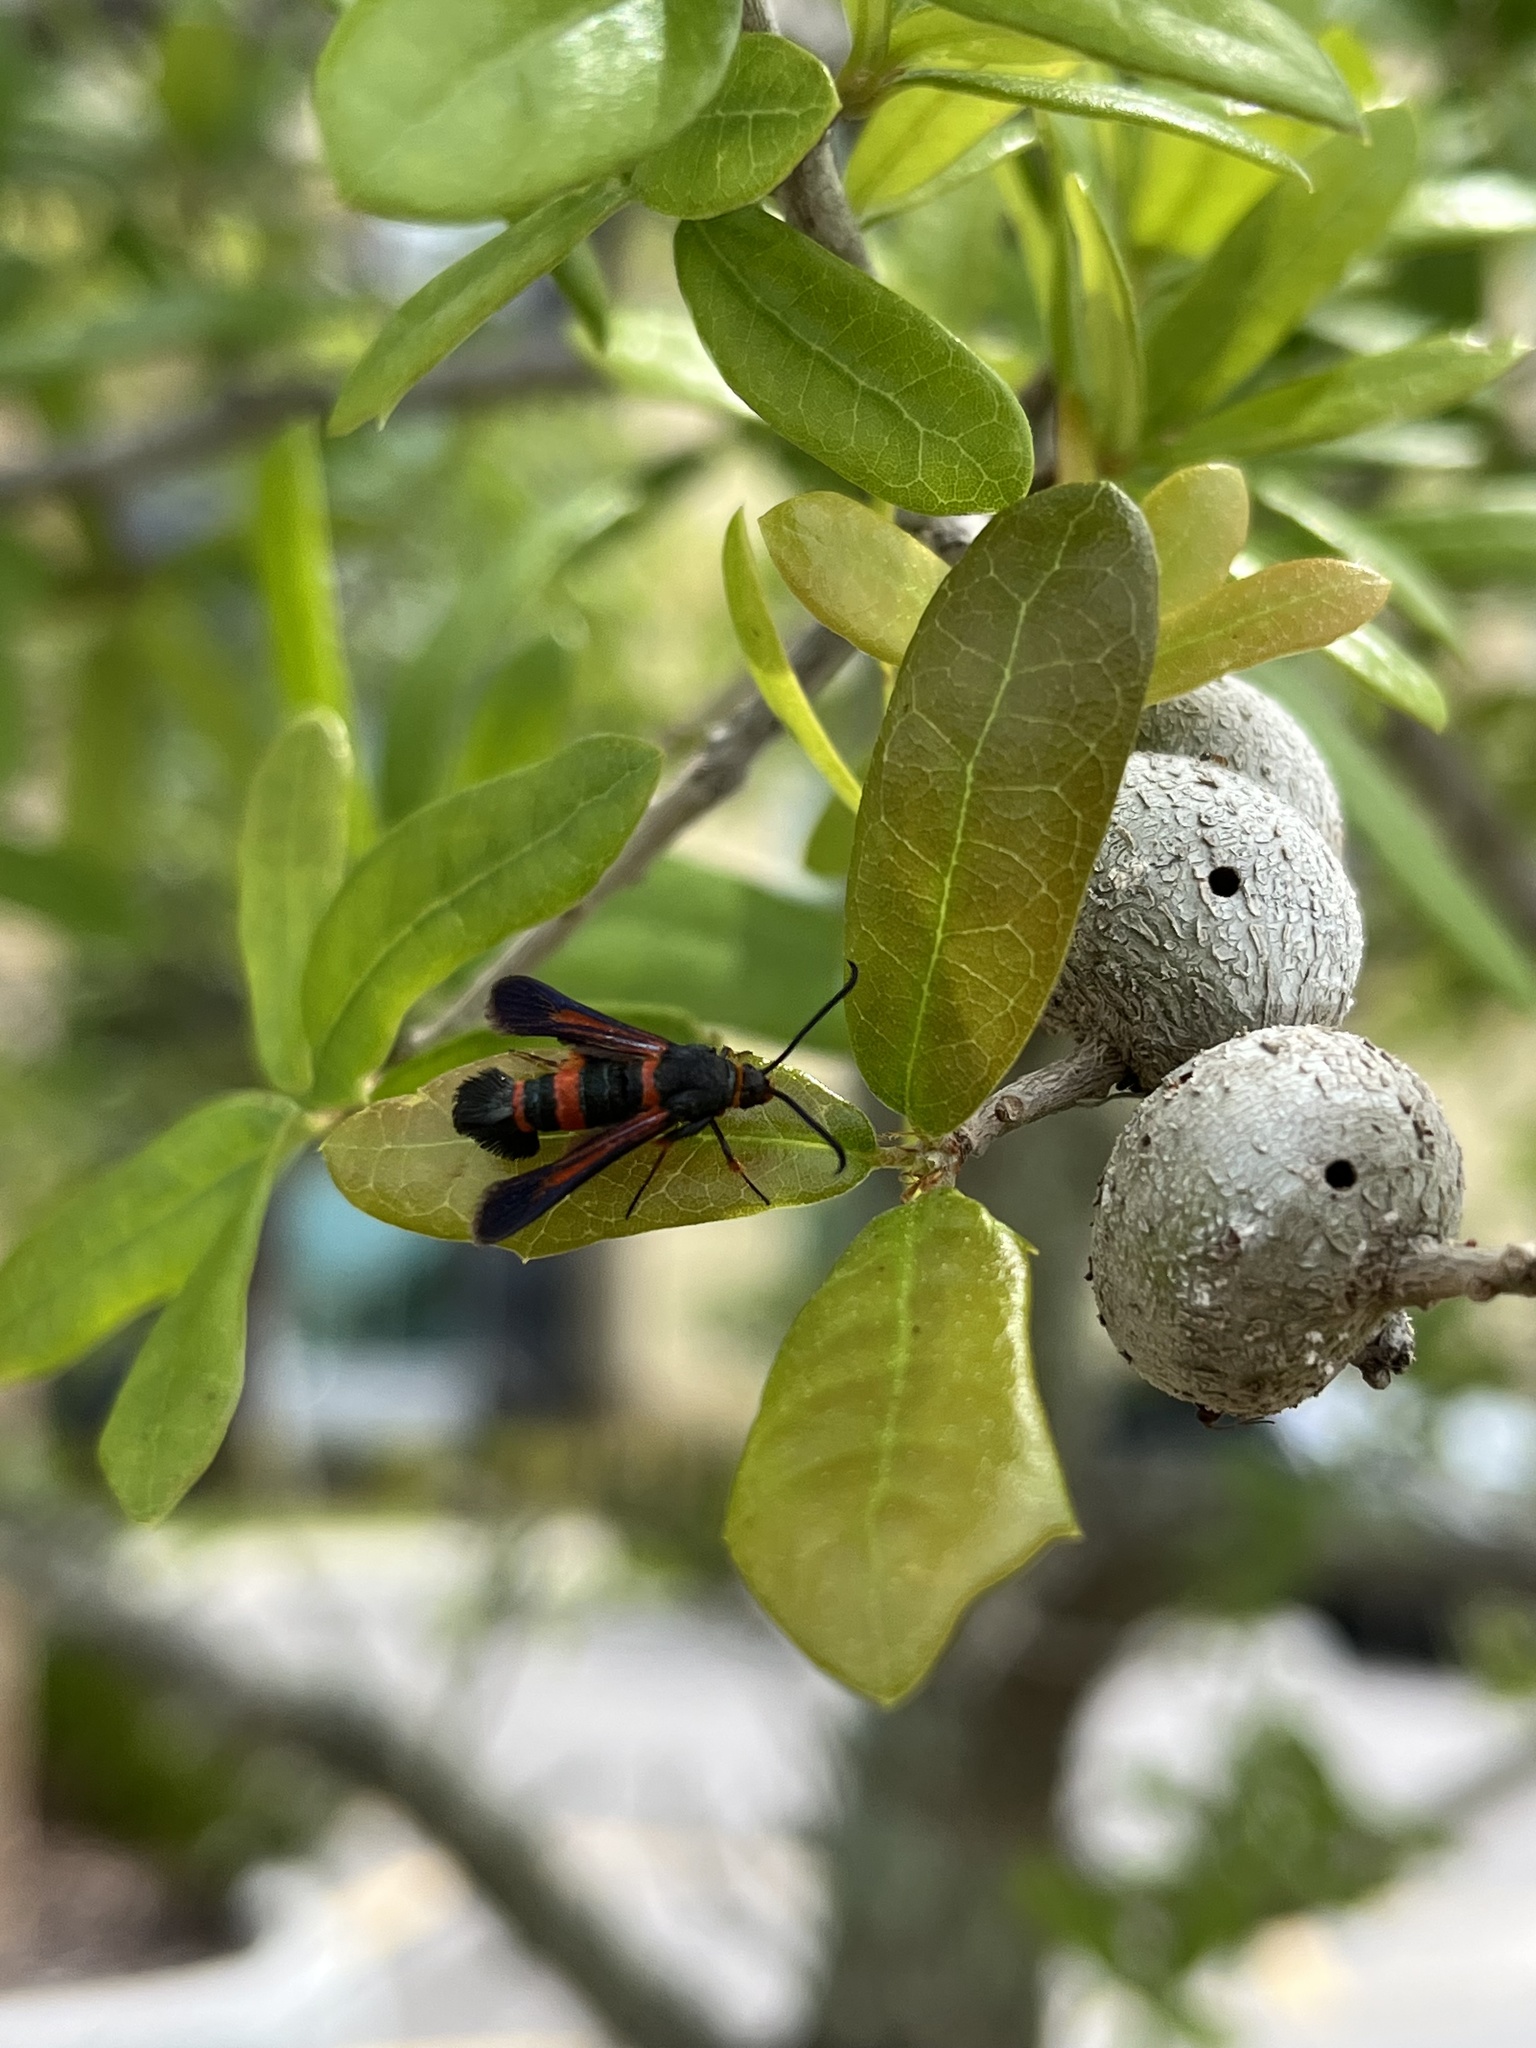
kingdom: Animalia
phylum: Arthropoda
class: Insecta
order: Lepidoptera
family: Sesiidae
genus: Synanthedon
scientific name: Synanthedon sapygaeformis
